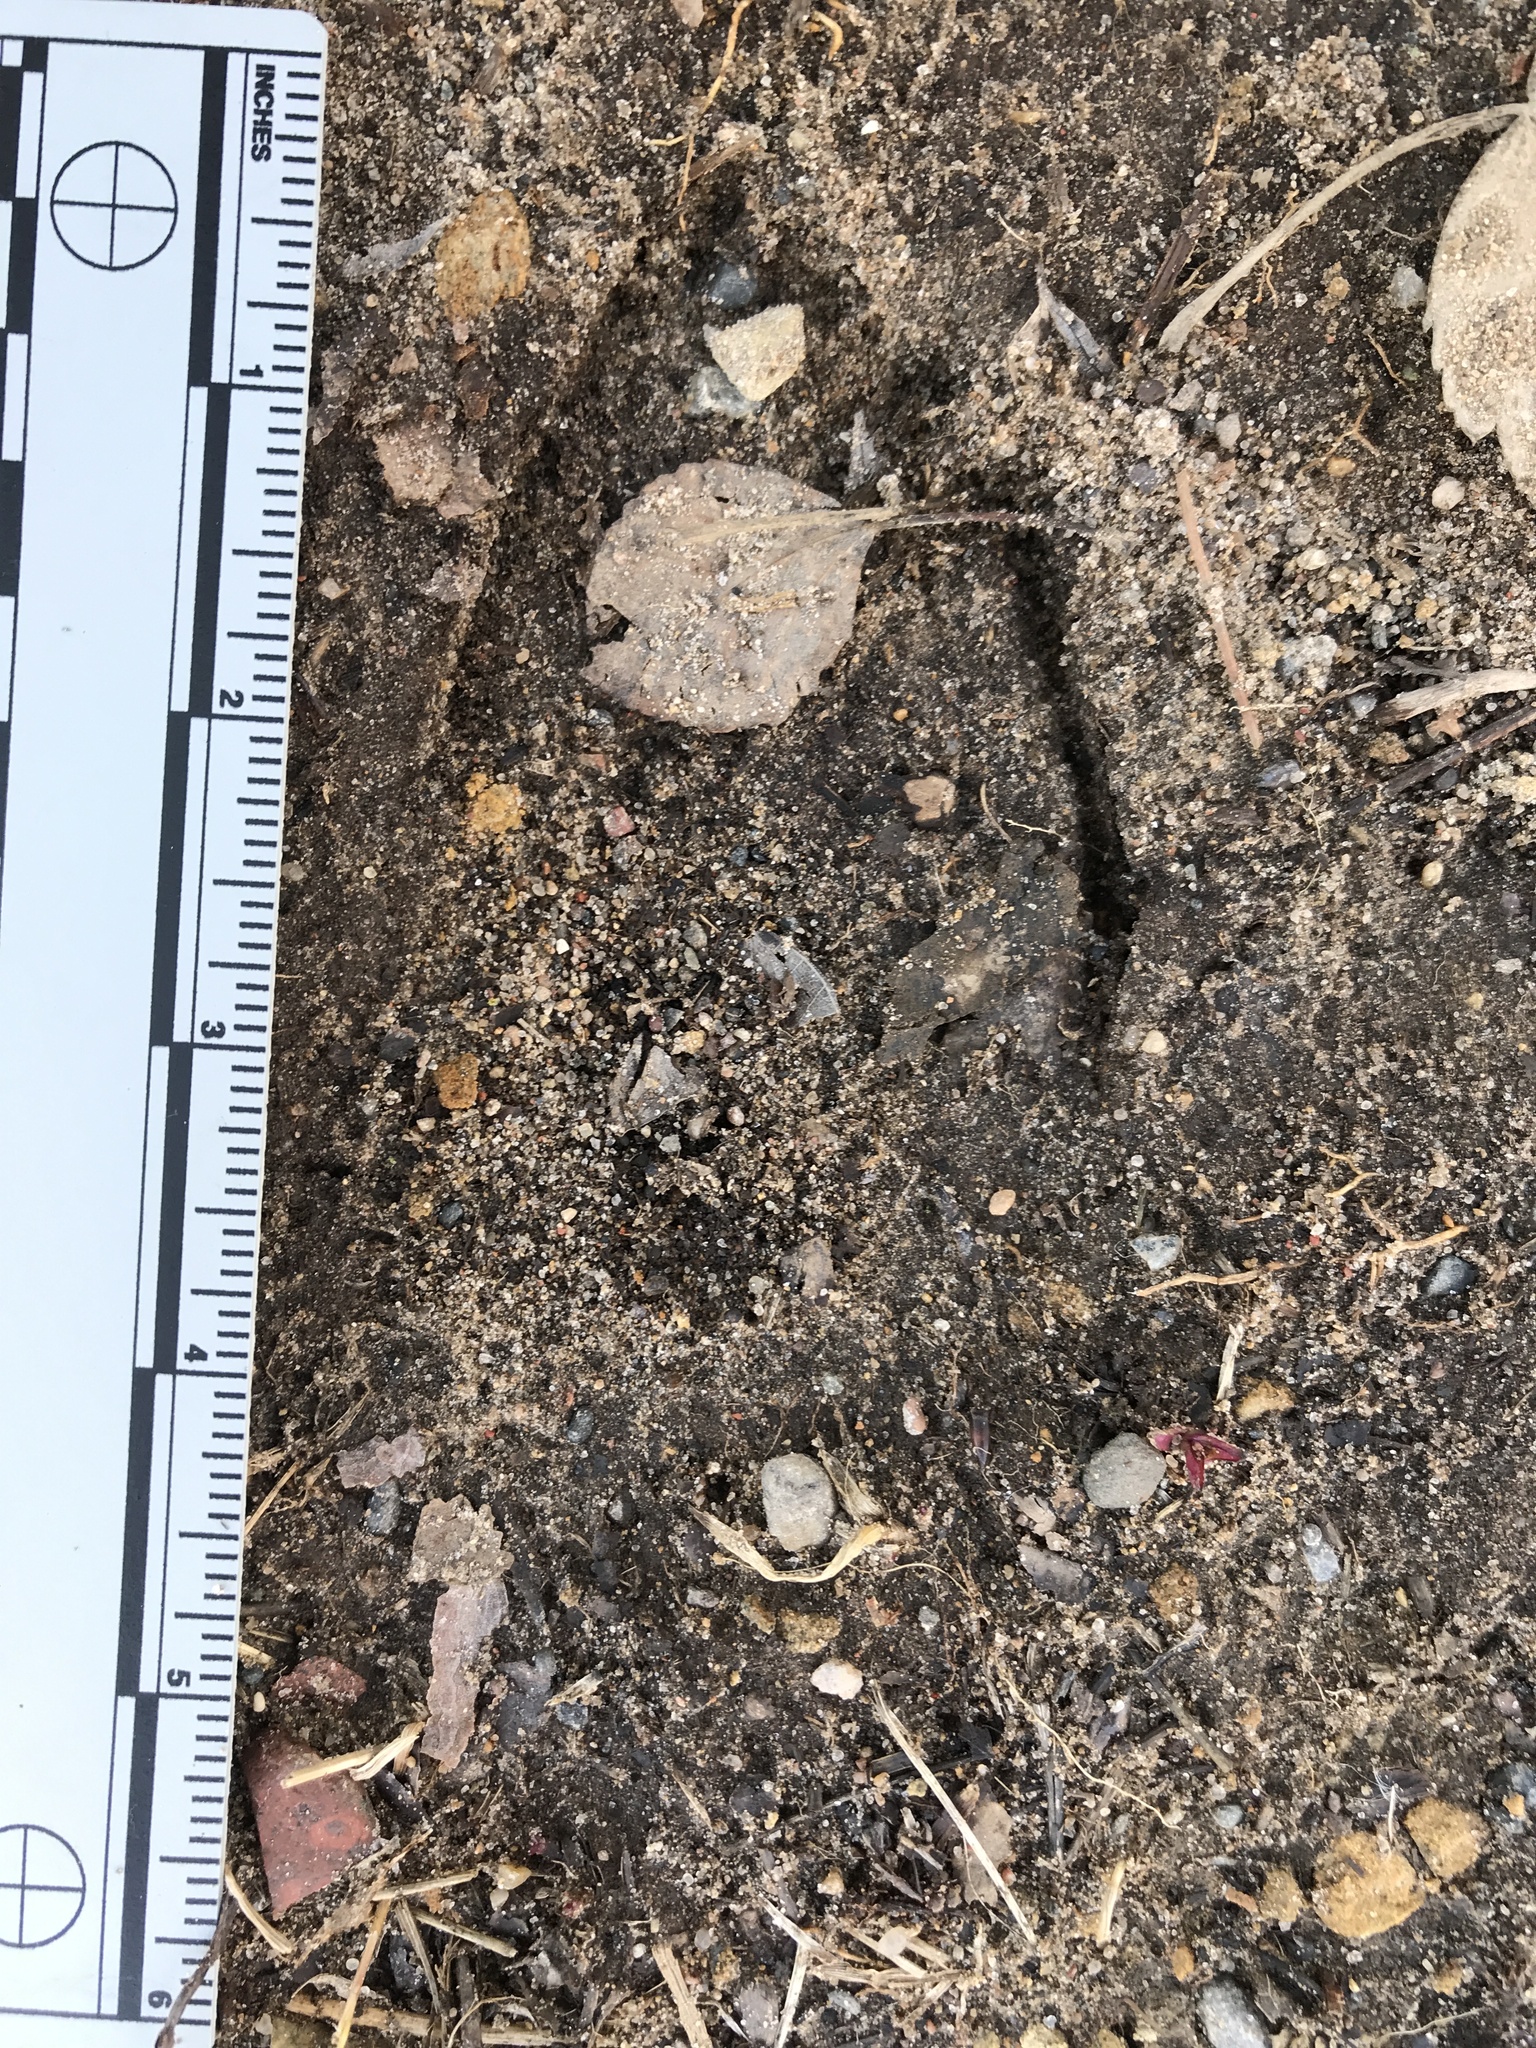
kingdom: Animalia
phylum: Chordata
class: Mammalia
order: Artiodactyla
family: Cervidae
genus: Odocoileus
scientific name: Odocoileus virginianus
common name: White-tailed deer
